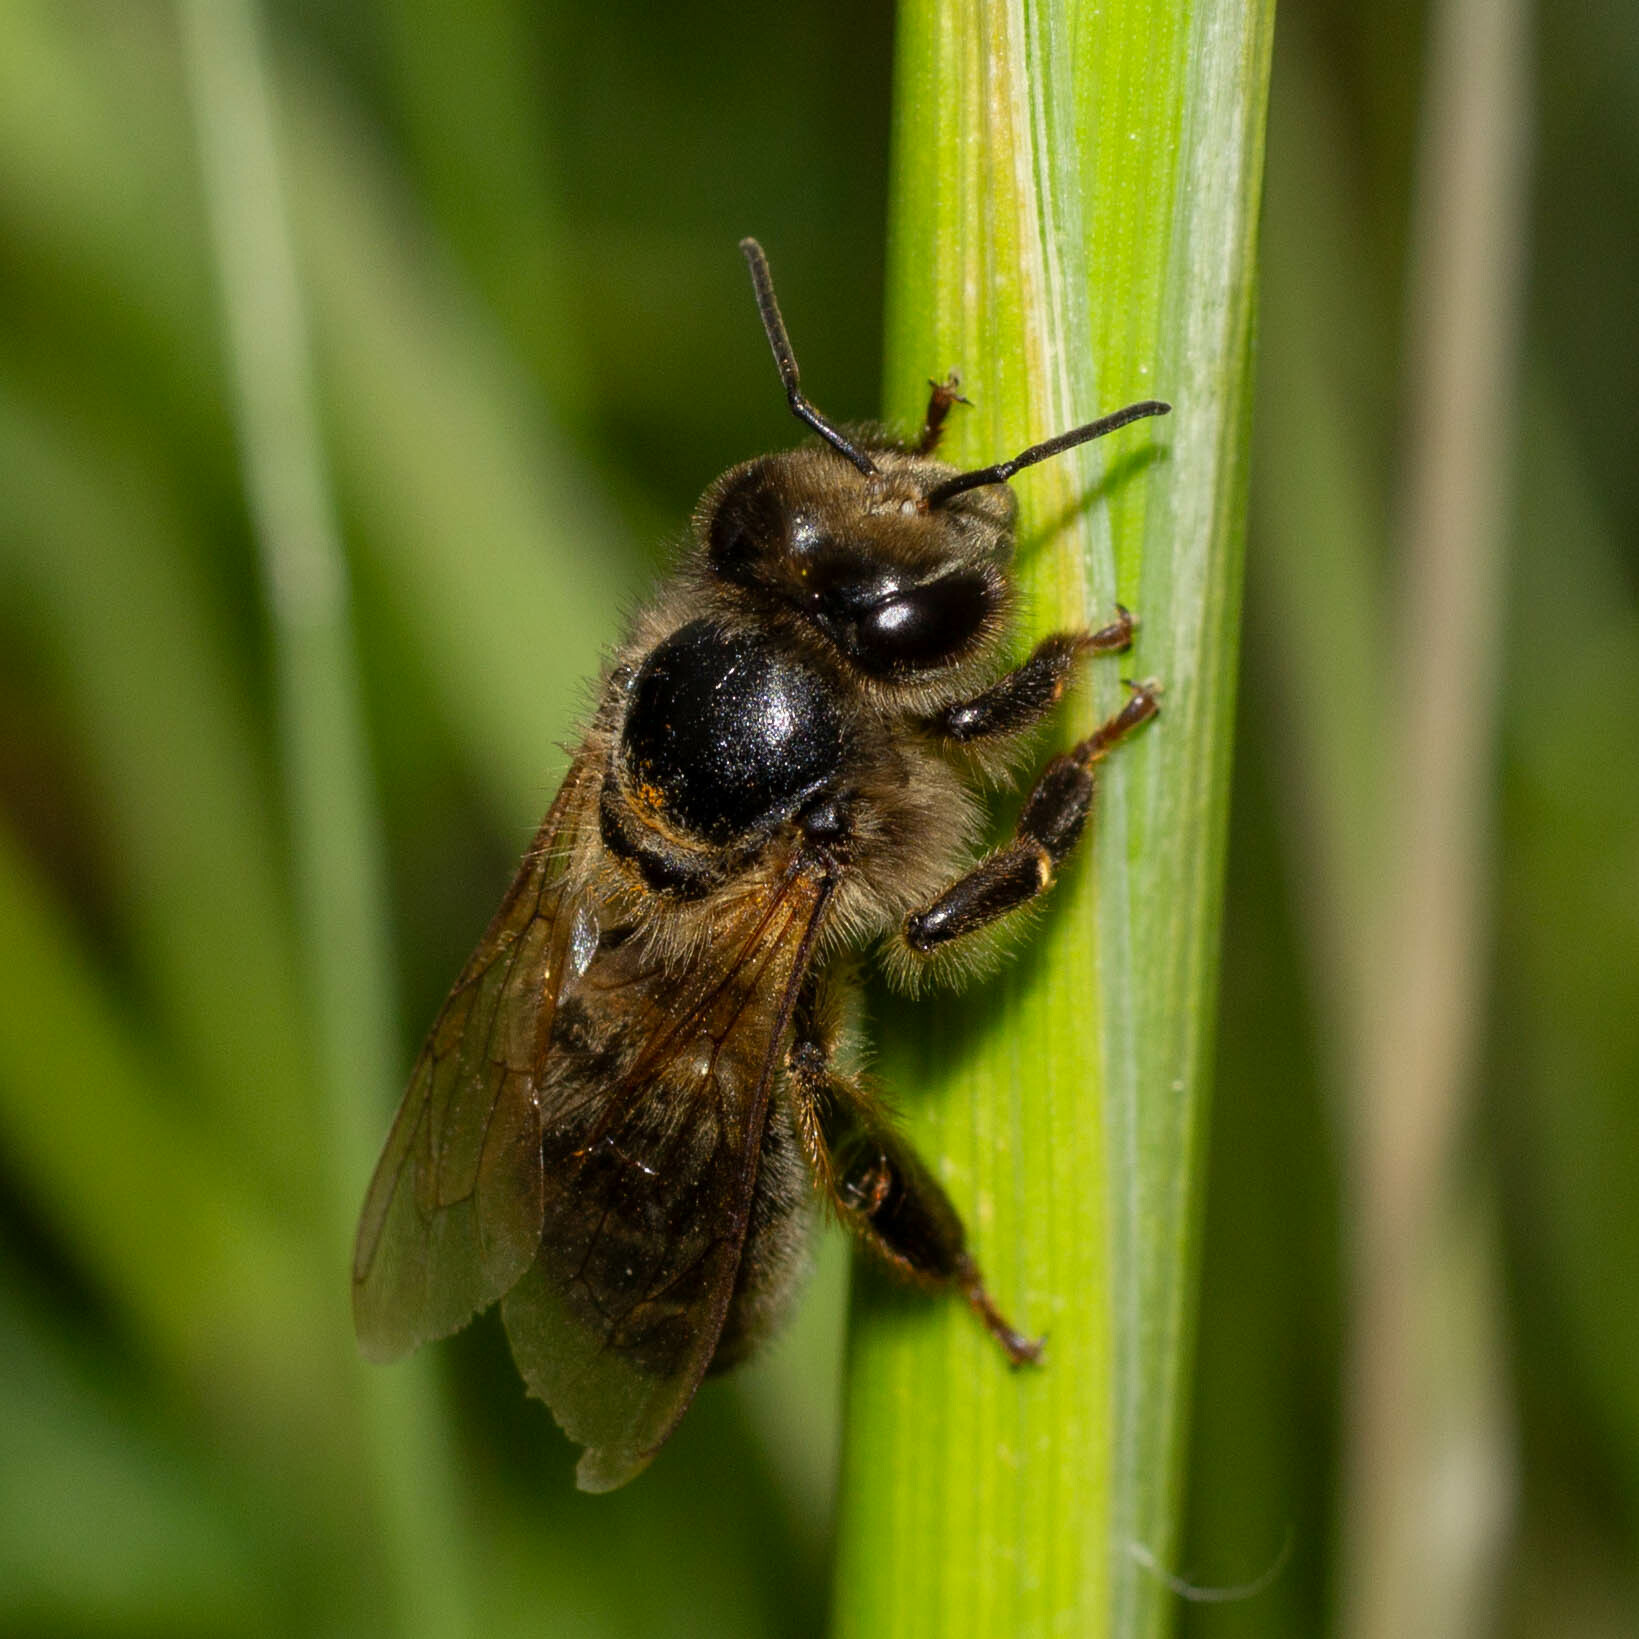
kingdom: Animalia
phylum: Arthropoda
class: Insecta
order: Hymenoptera
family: Apidae
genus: Apis
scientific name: Apis mellifera
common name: Honey bee
